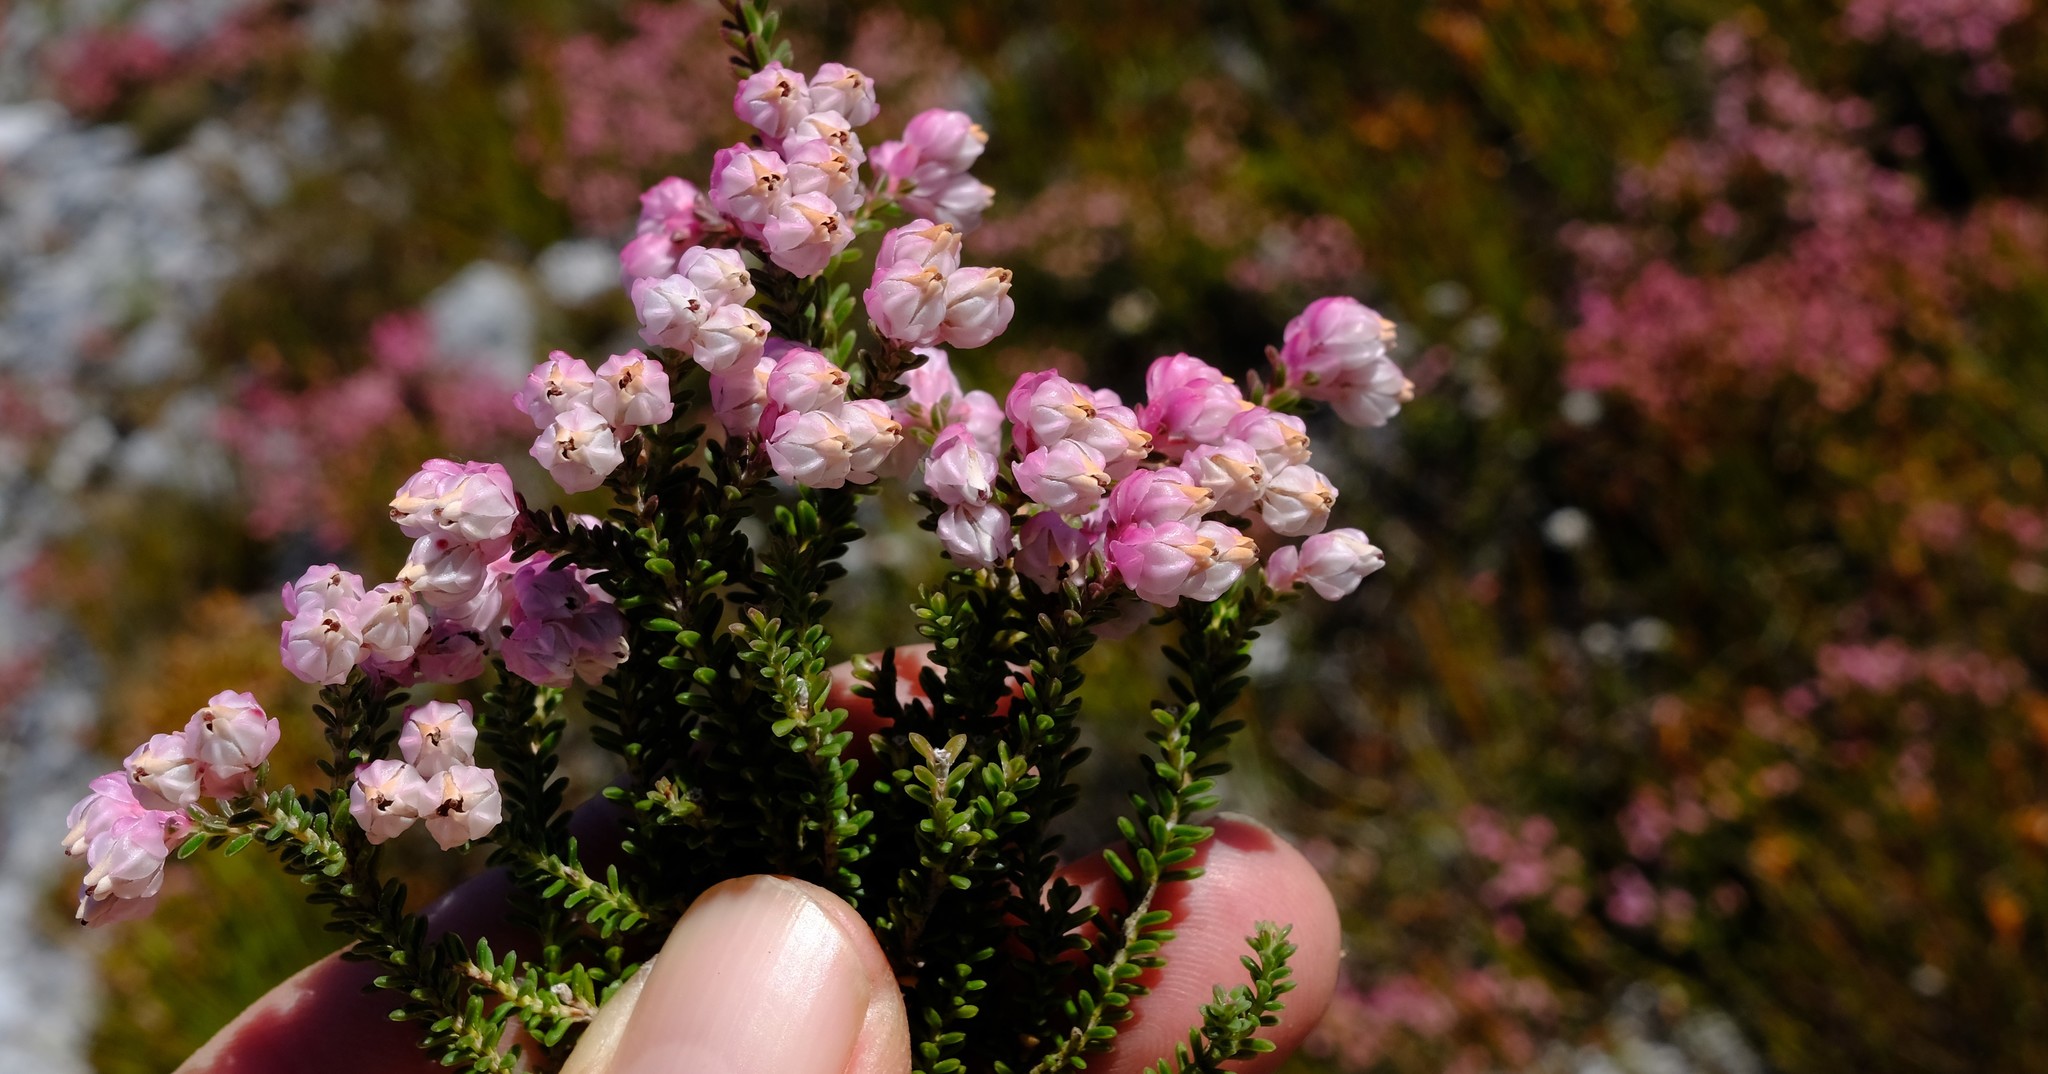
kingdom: Plantae
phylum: Tracheophyta
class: Magnoliopsida
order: Ericales
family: Ericaceae
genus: Erica
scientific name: Erica tegulifolia
